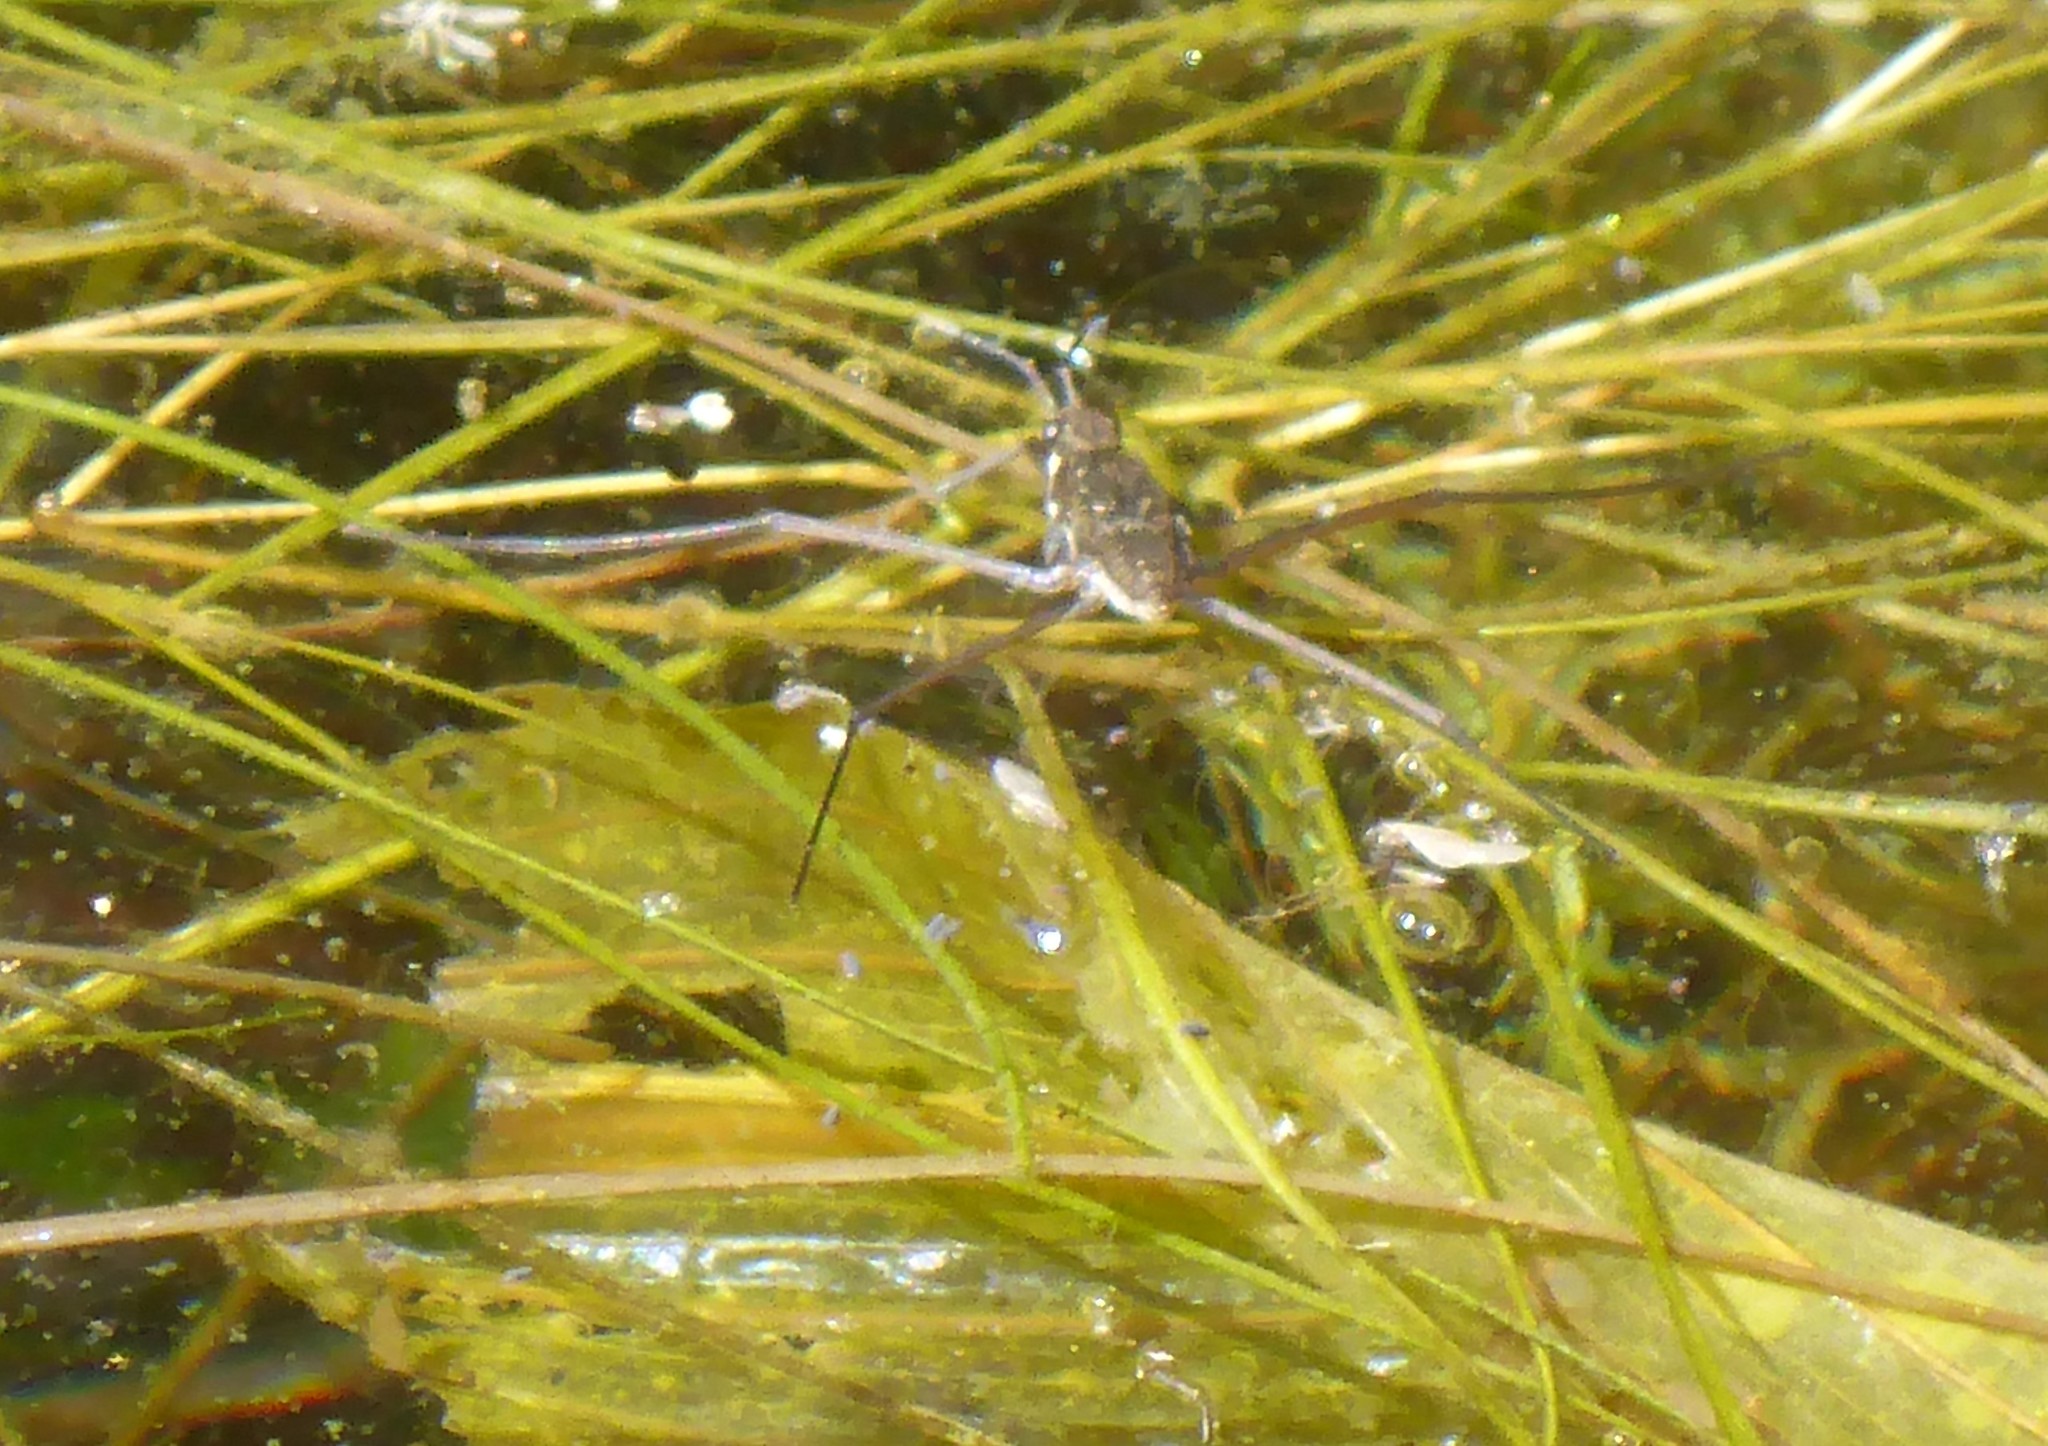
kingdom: Animalia
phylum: Arthropoda
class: Insecta
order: Hemiptera
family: Gerridae
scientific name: Gerridae
